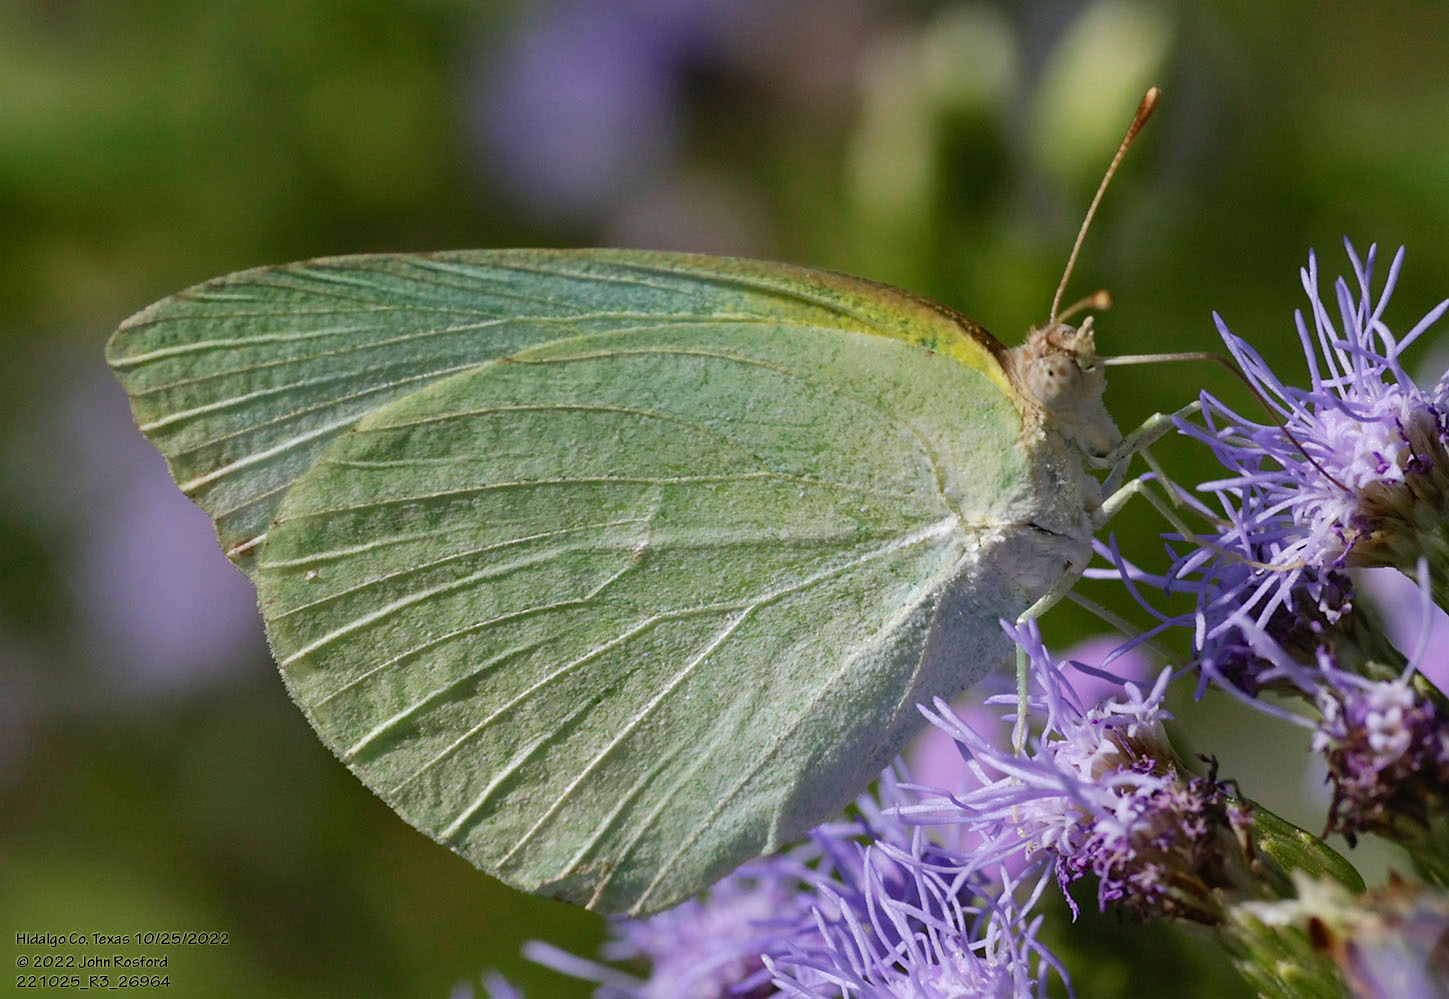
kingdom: Animalia
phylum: Arthropoda
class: Insecta
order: Lepidoptera
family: Pieridae
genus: Kricogonia
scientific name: Kricogonia lyside
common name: Guayacan sulphur,
